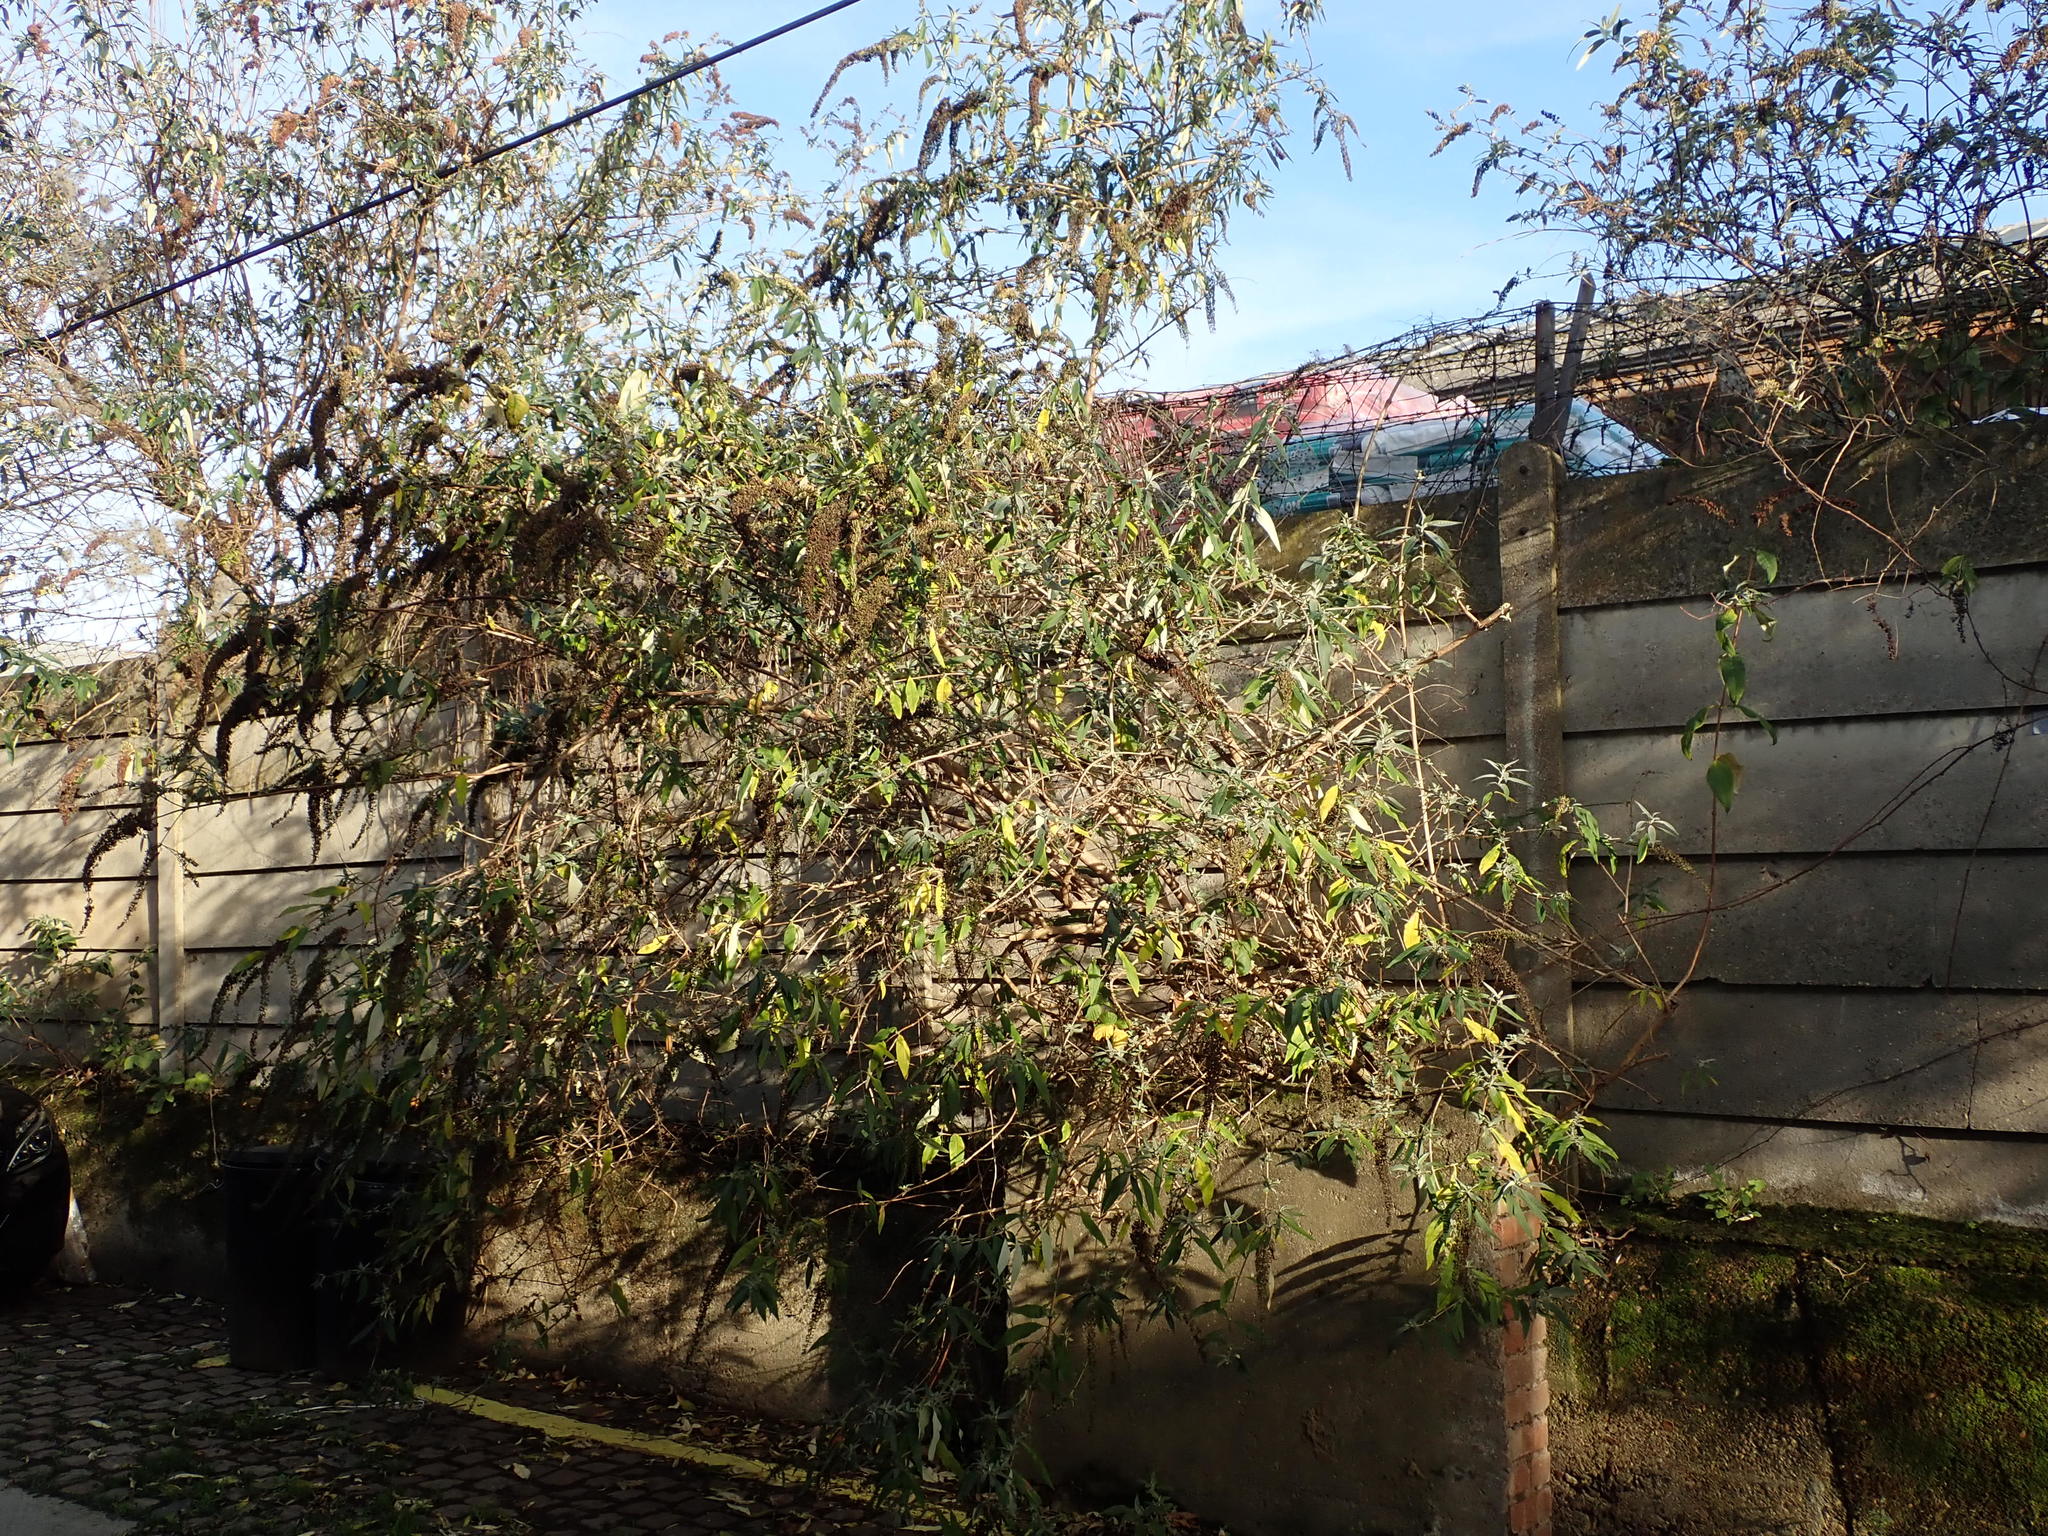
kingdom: Plantae
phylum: Tracheophyta
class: Magnoliopsida
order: Lamiales
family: Scrophulariaceae
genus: Buddleja
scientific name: Buddleja davidii
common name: Butterfly-bush
